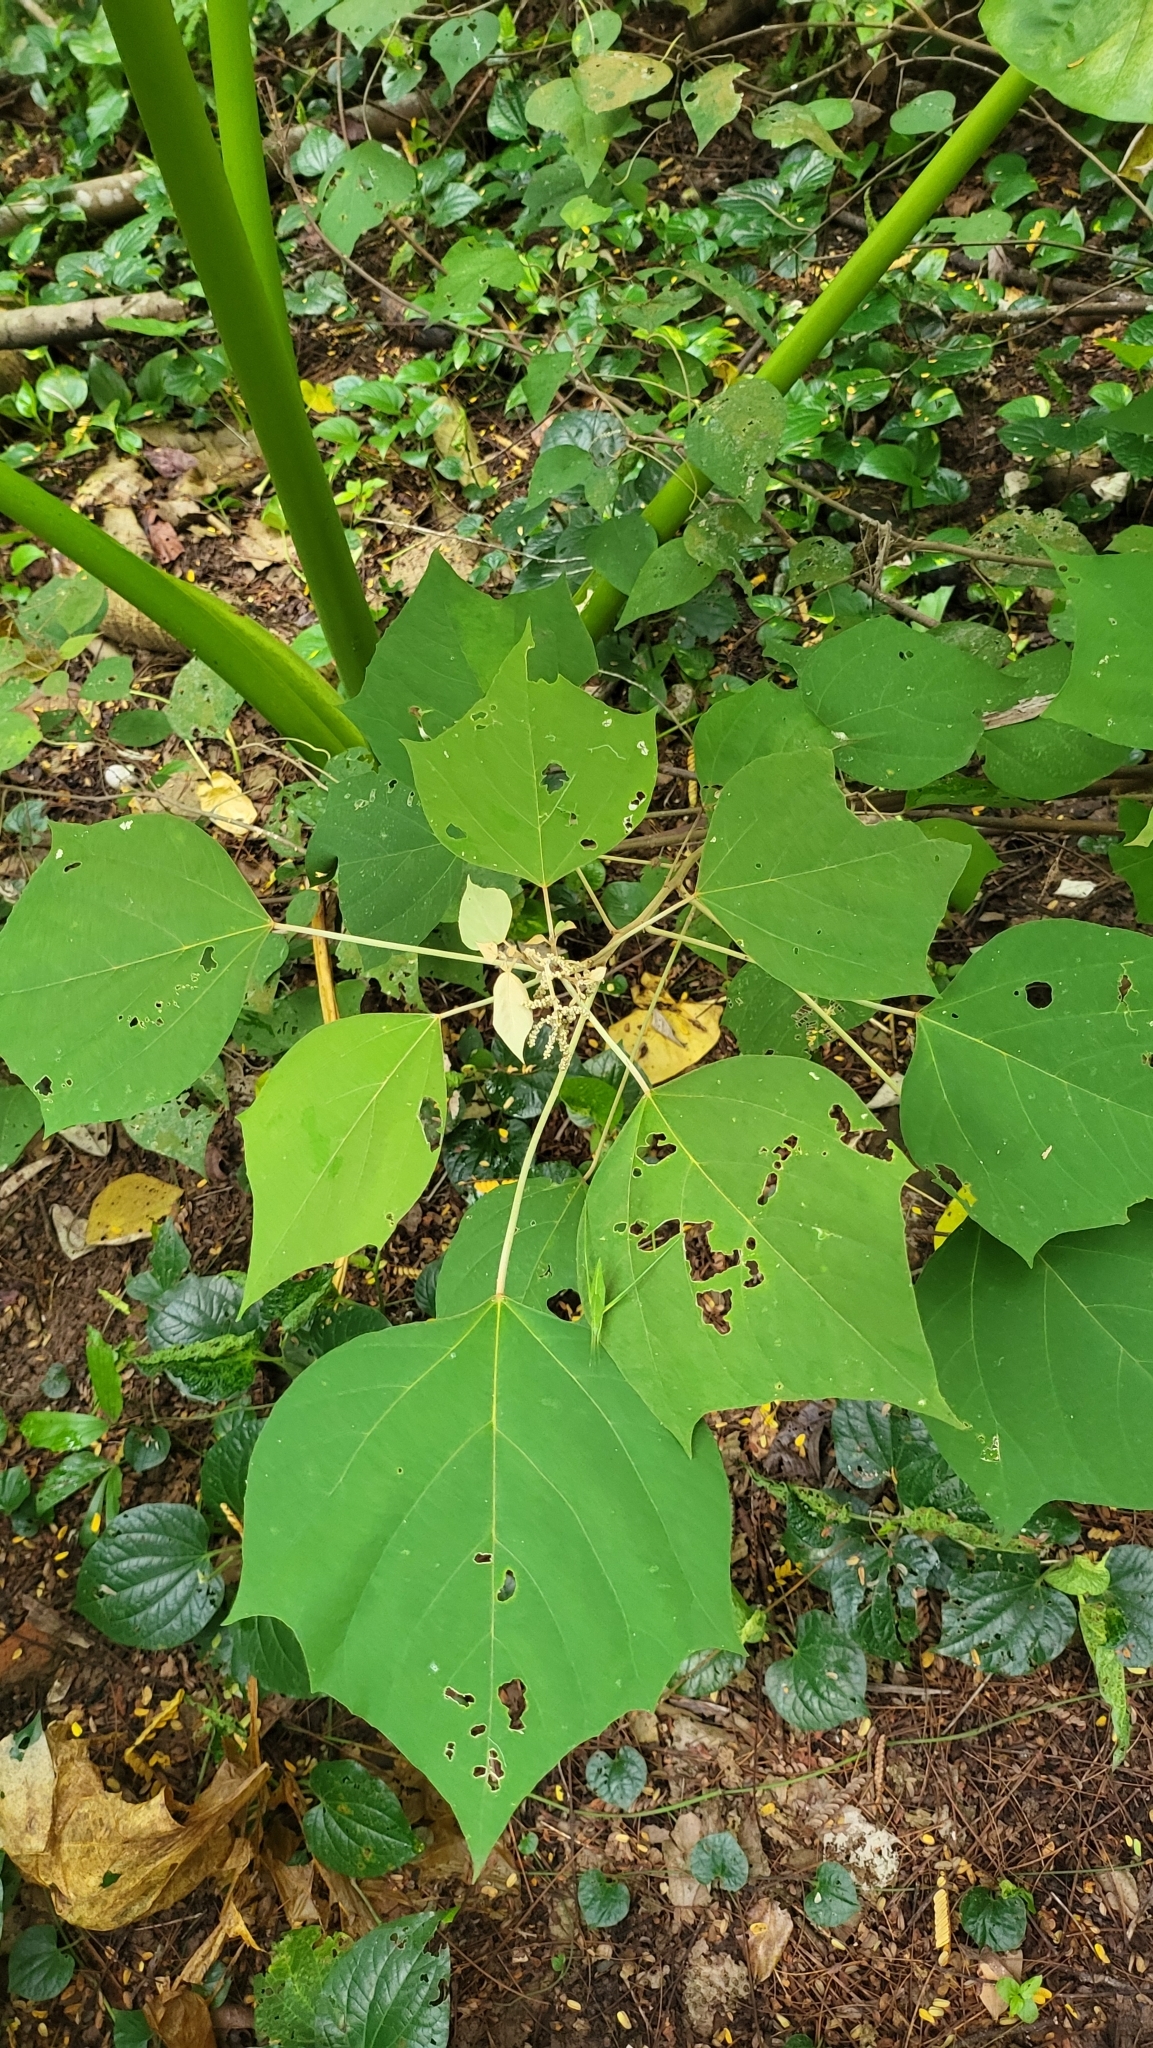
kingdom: Plantae
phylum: Tracheophyta
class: Magnoliopsida
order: Malpighiales
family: Euphorbiaceae
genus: Mallotus
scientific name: Mallotus paniculatus
